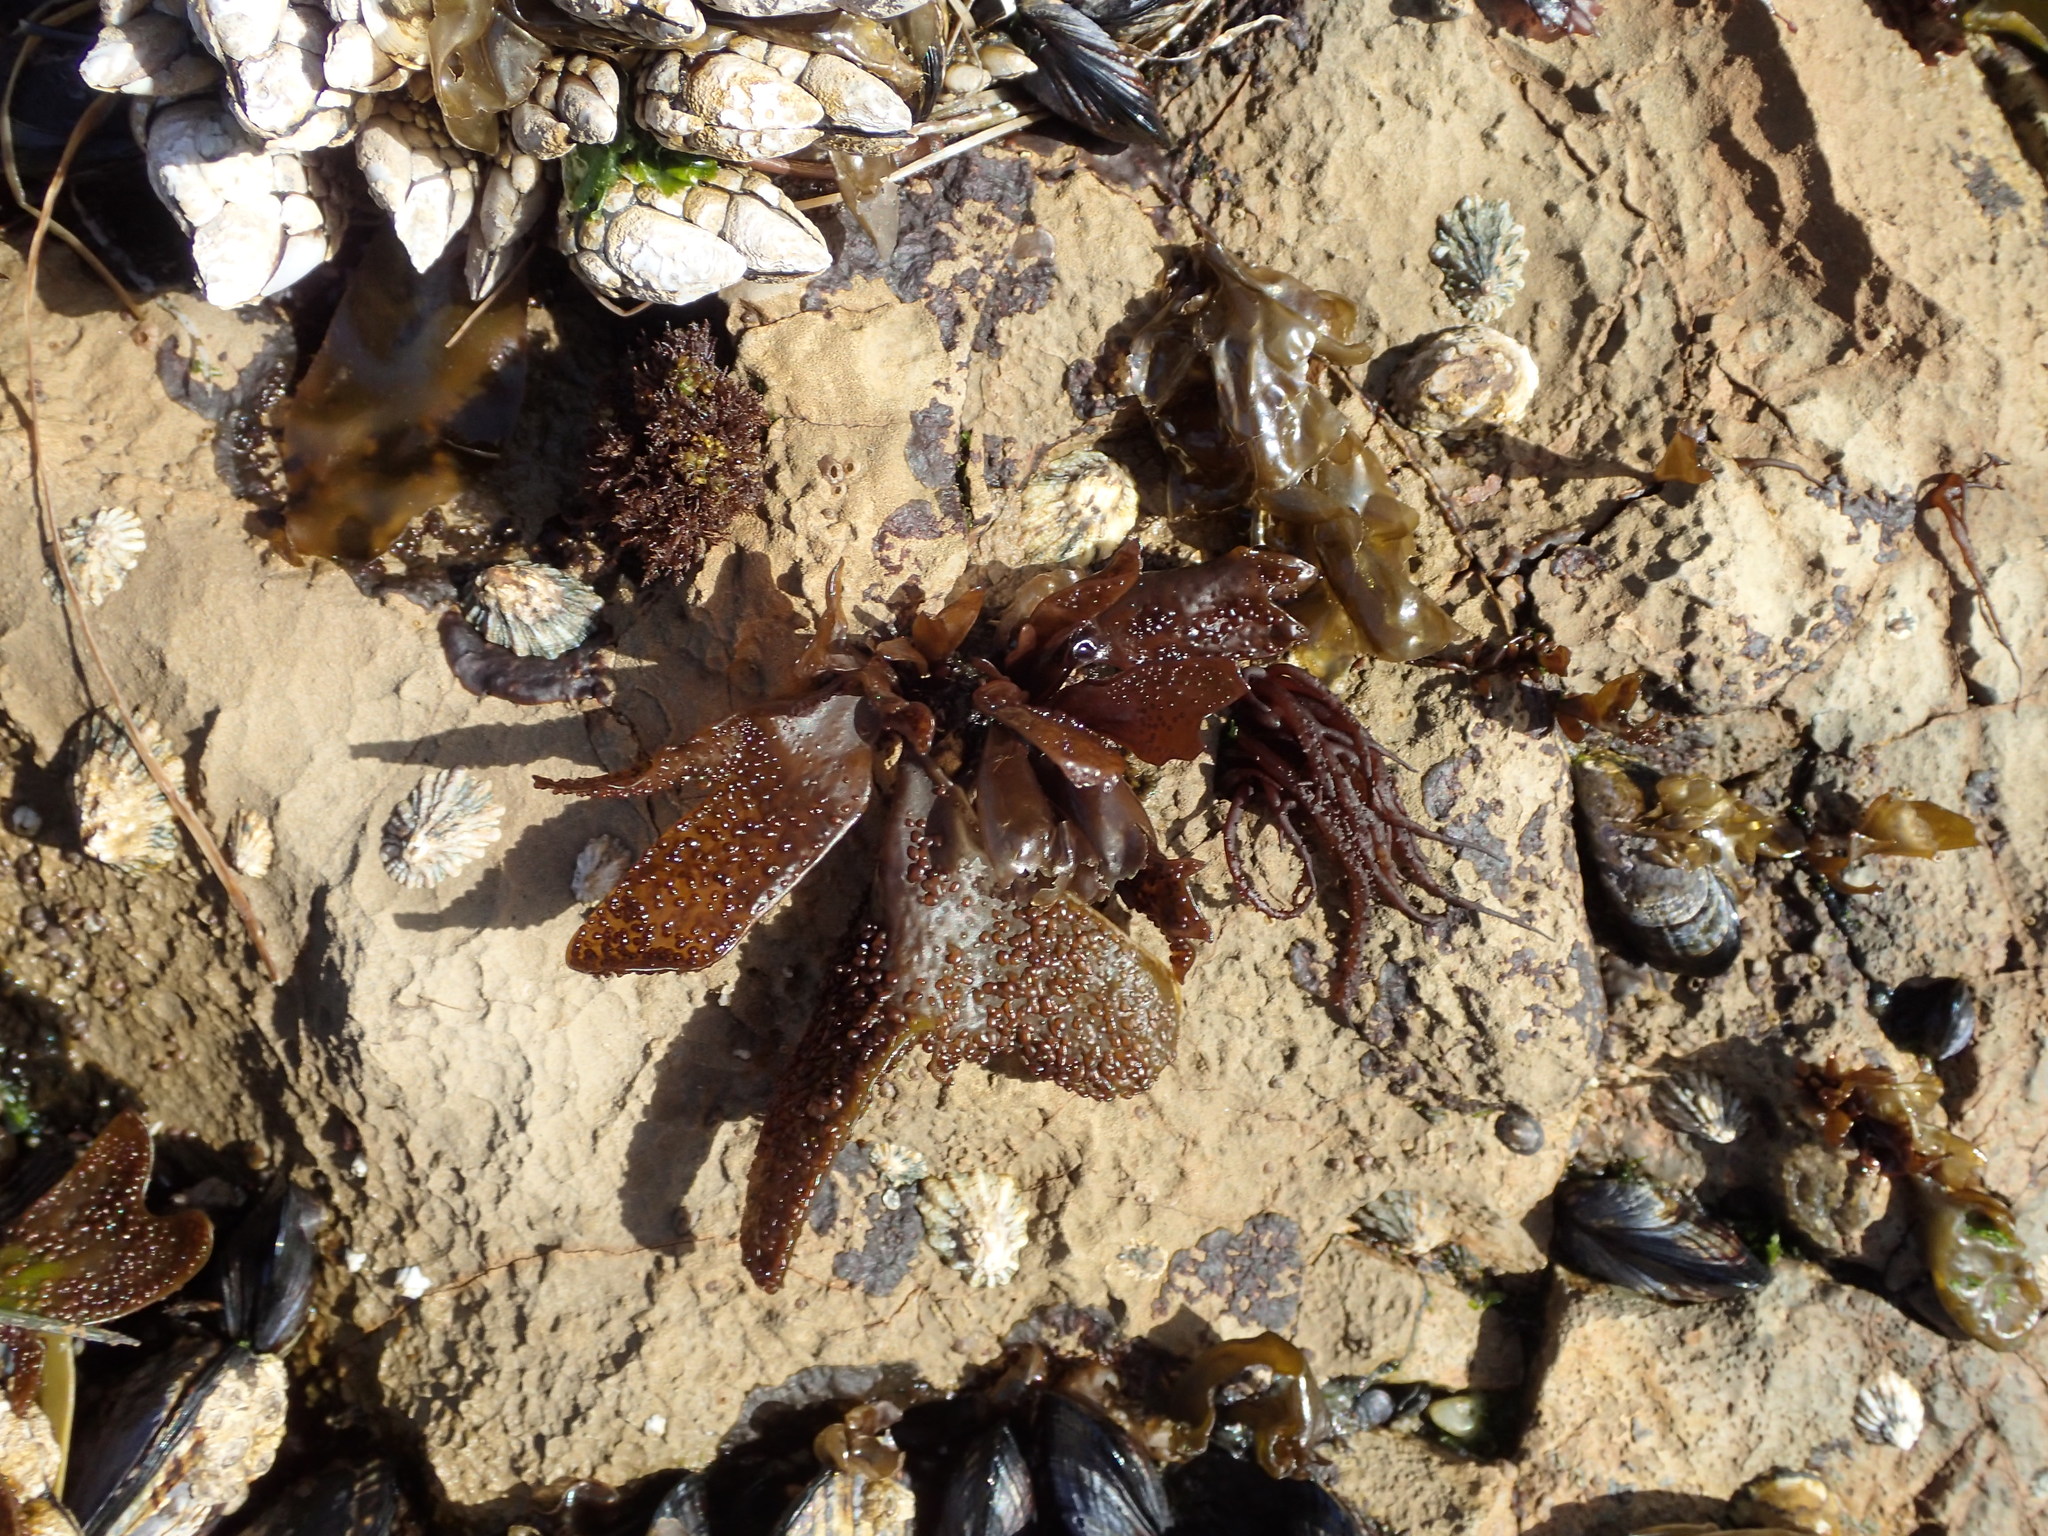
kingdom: Plantae
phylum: Rhodophyta
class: Florideophyceae
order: Gigartinales
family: Phyllophoraceae
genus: Mastocarpus
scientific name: Mastocarpus papillatus
